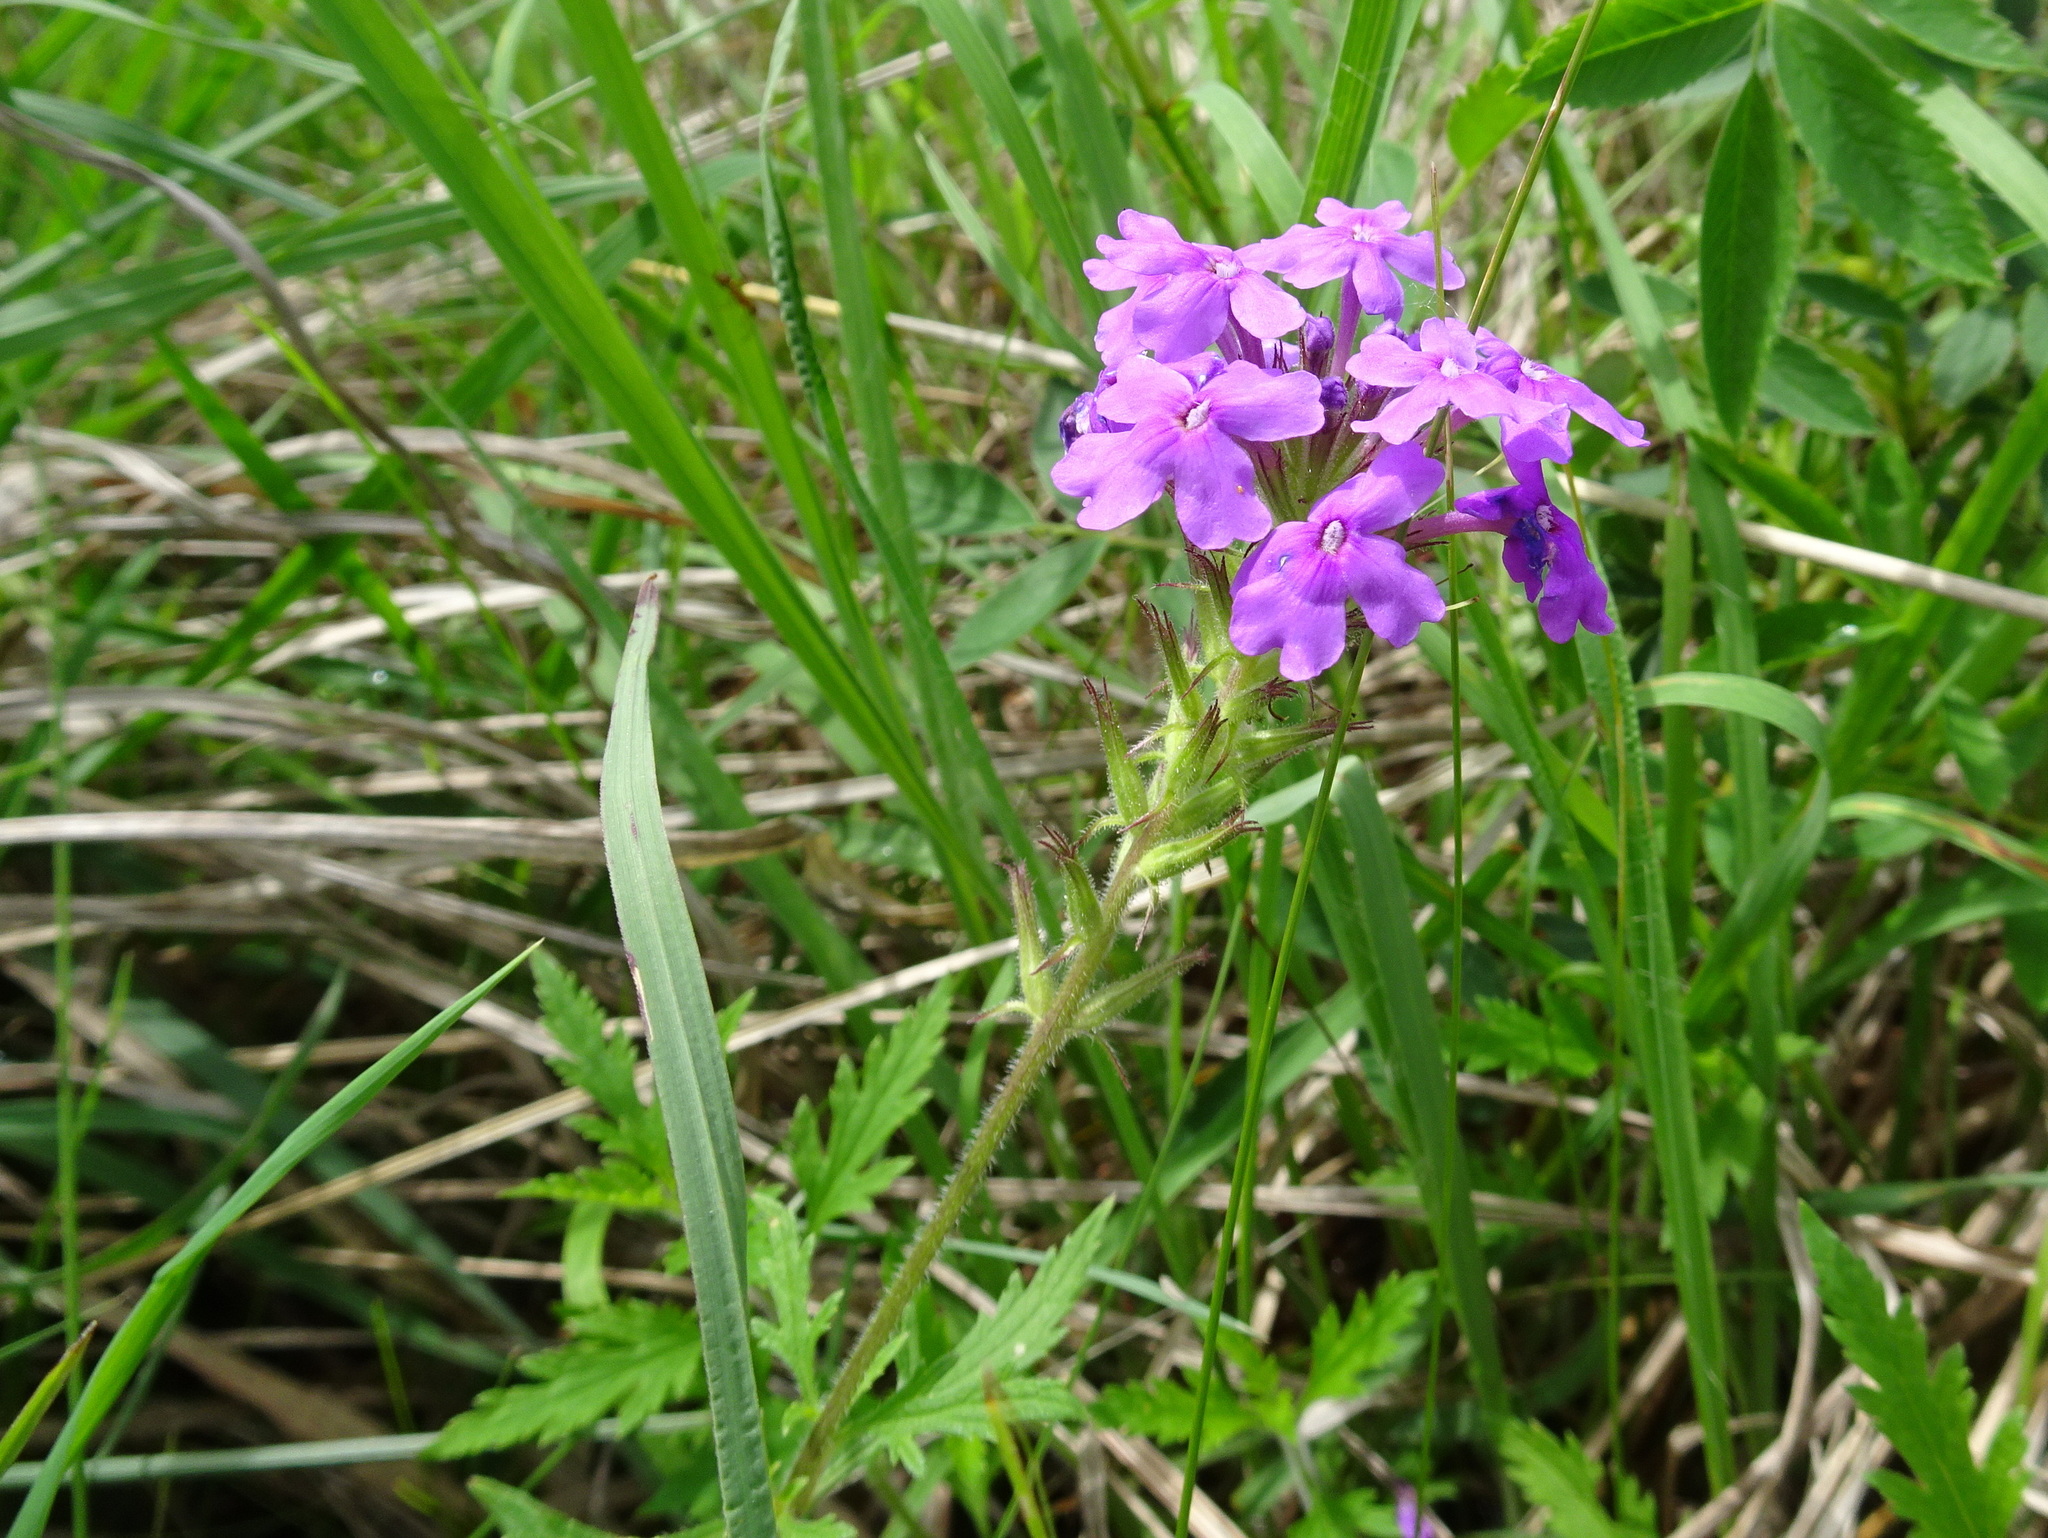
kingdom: Plantae
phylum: Tracheophyta
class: Magnoliopsida
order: Lamiales
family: Verbenaceae
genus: Verbena
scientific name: Verbena canadensis
